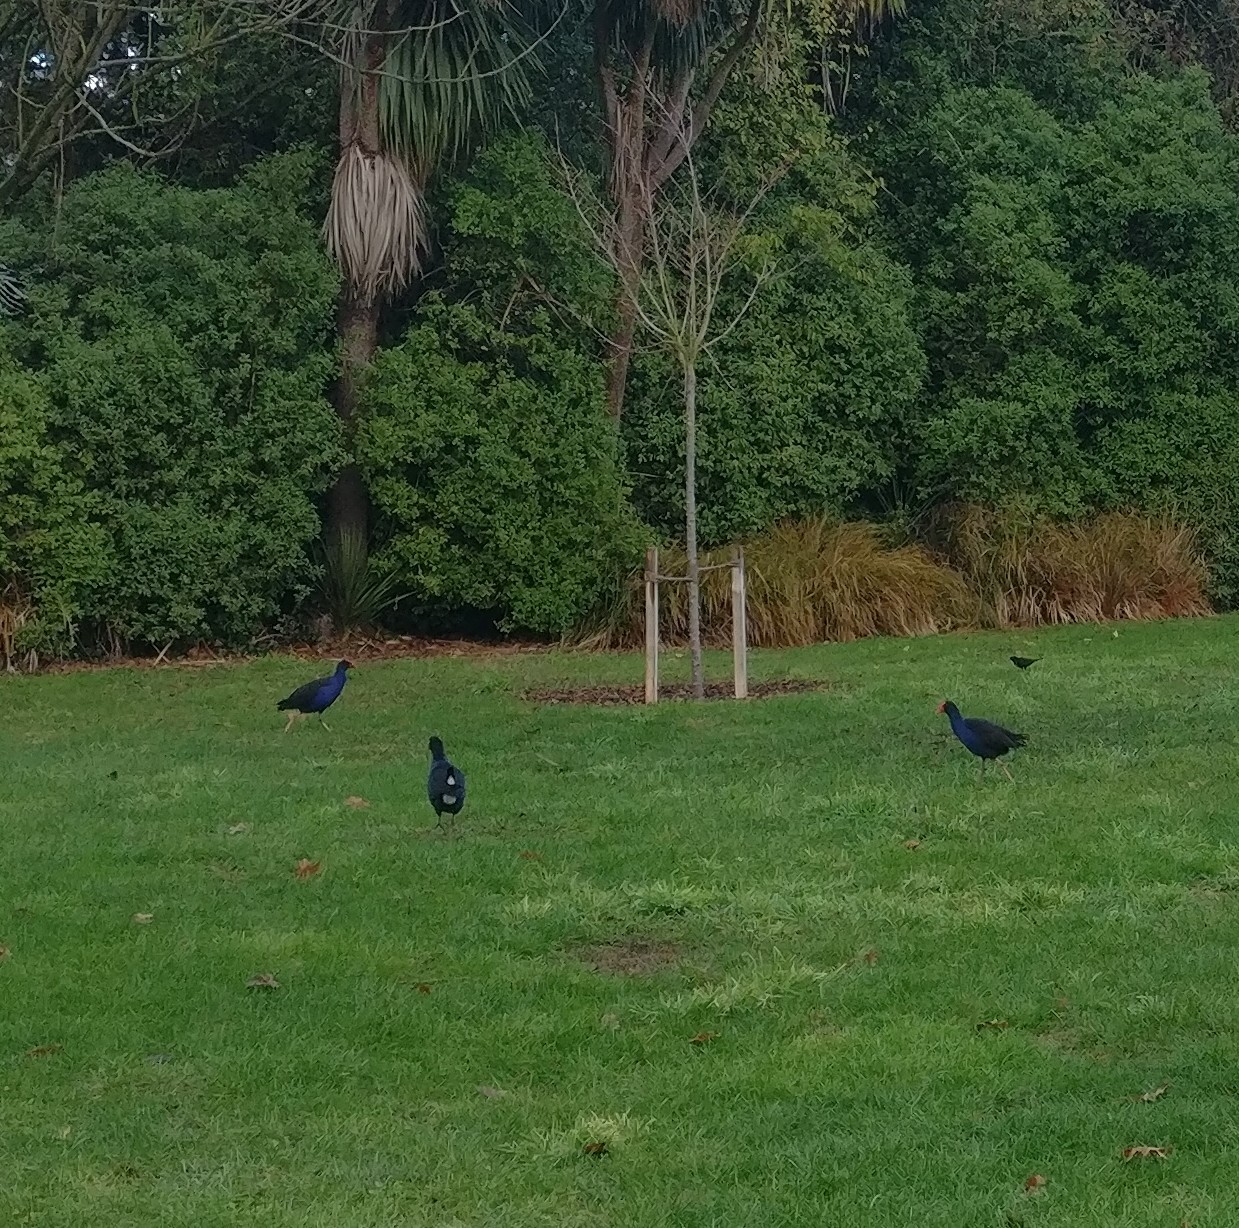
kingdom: Animalia
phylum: Chordata
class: Aves
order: Gruiformes
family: Rallidae
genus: Porphyrio
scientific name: Porphyrio melanotus
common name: Australasian swamphen
